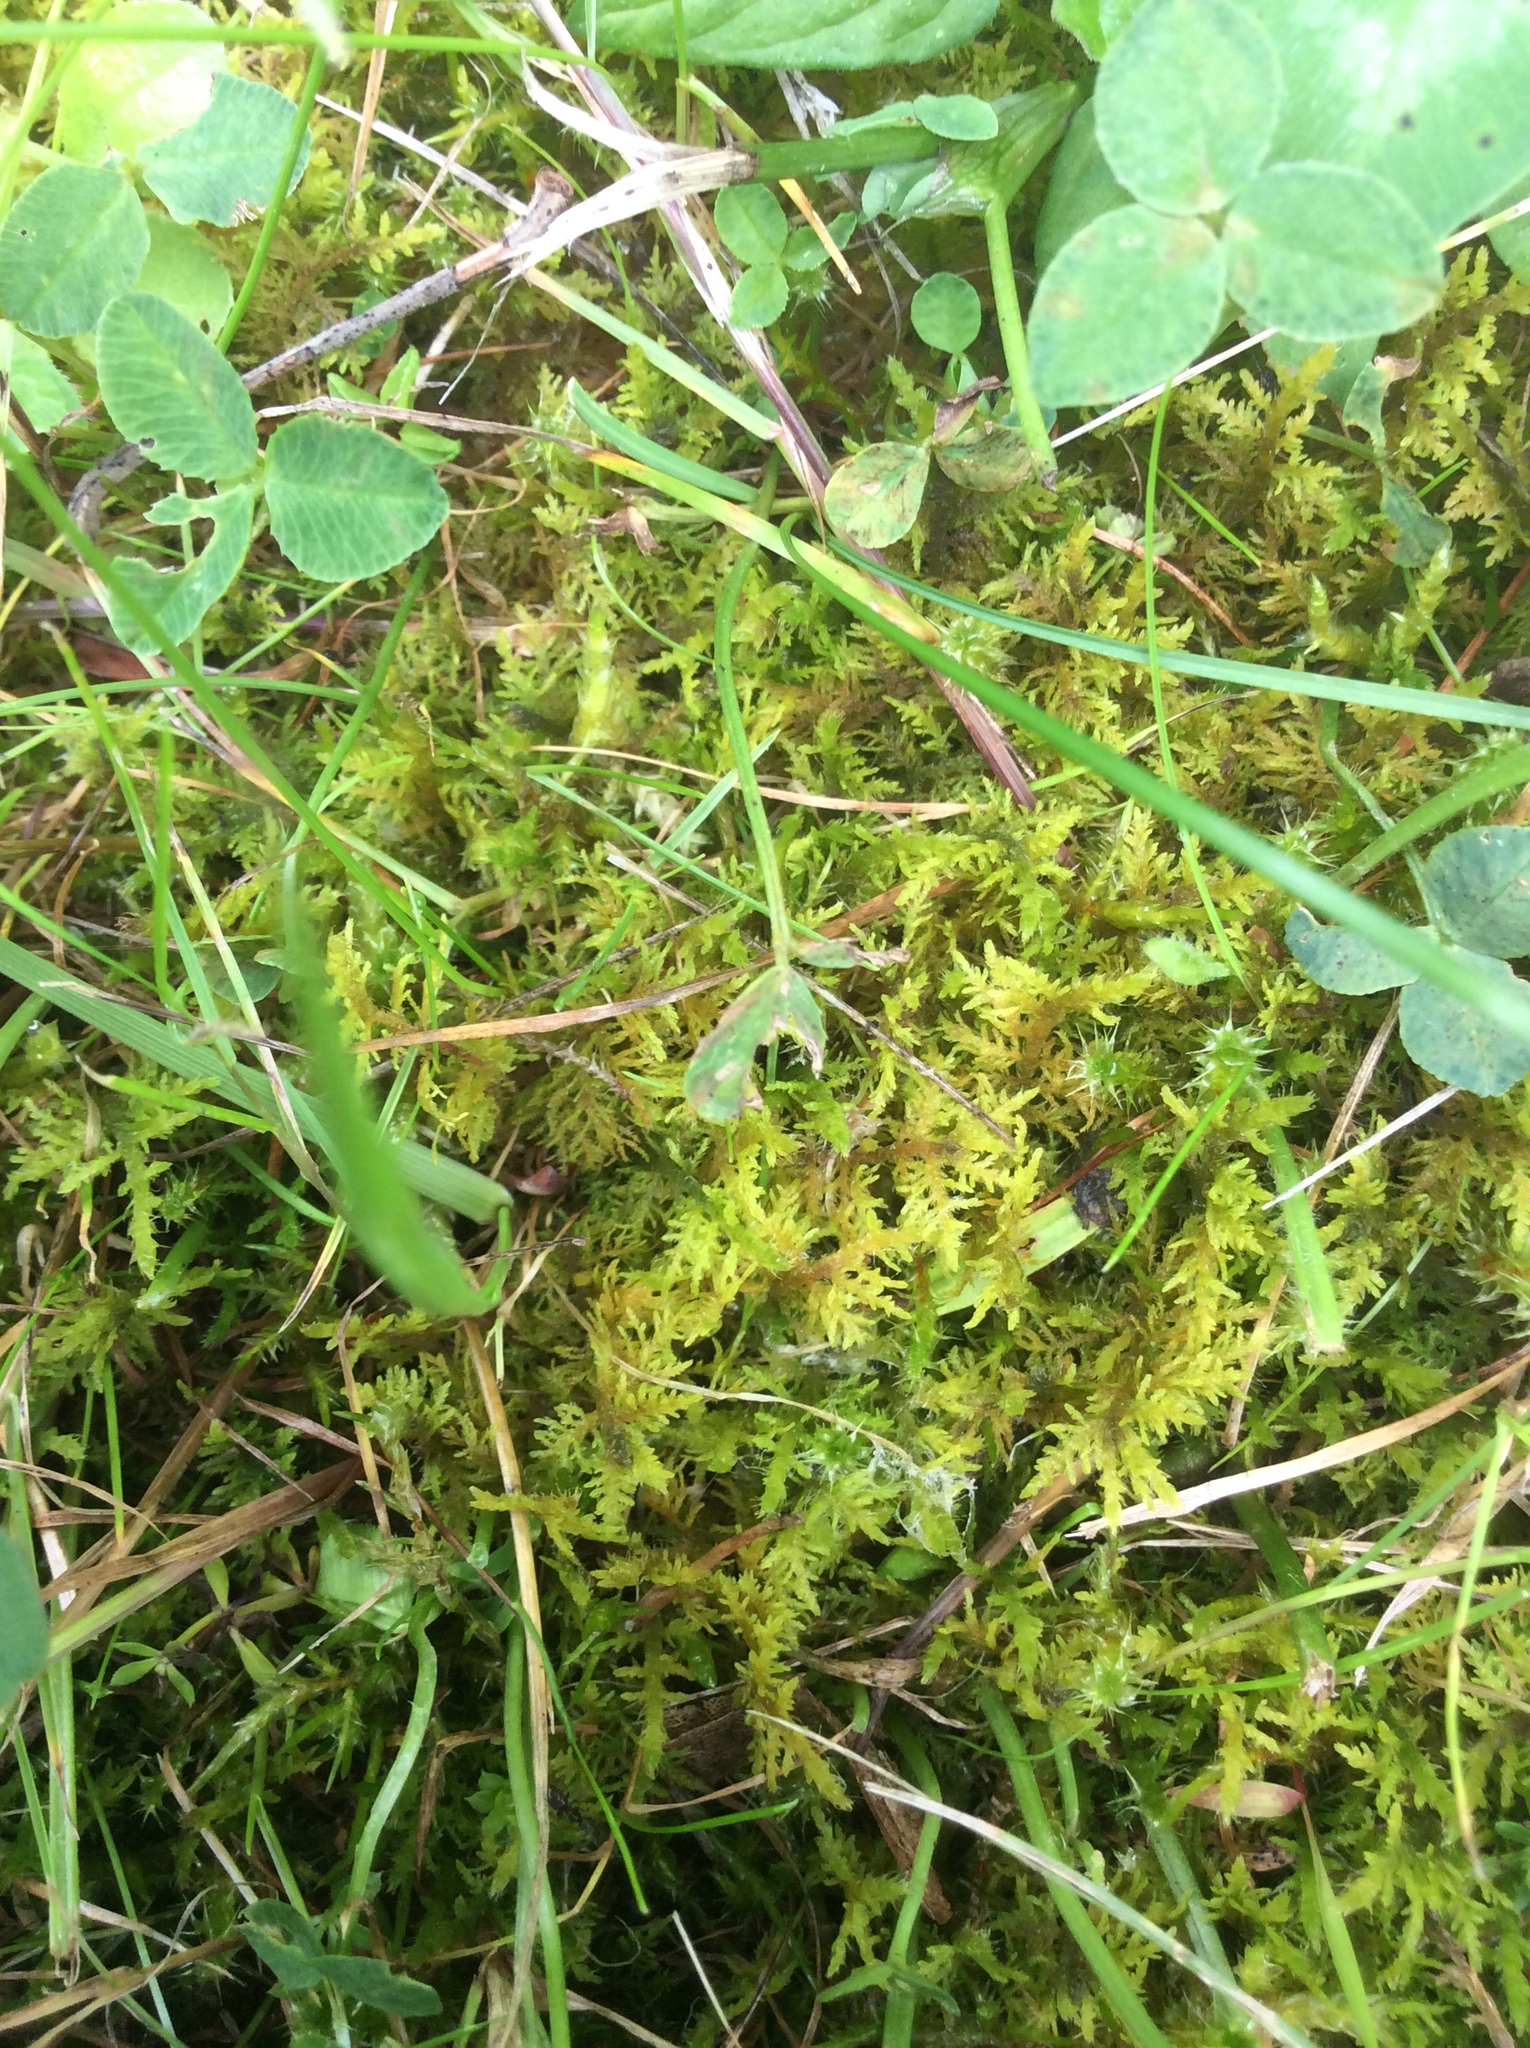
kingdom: Plantae
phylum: Bryophyta
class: Bryopsida
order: Hypnales
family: Thuidiaceae
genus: Thuidium
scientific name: Thuidium assimile
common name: Philibert's fern moss
